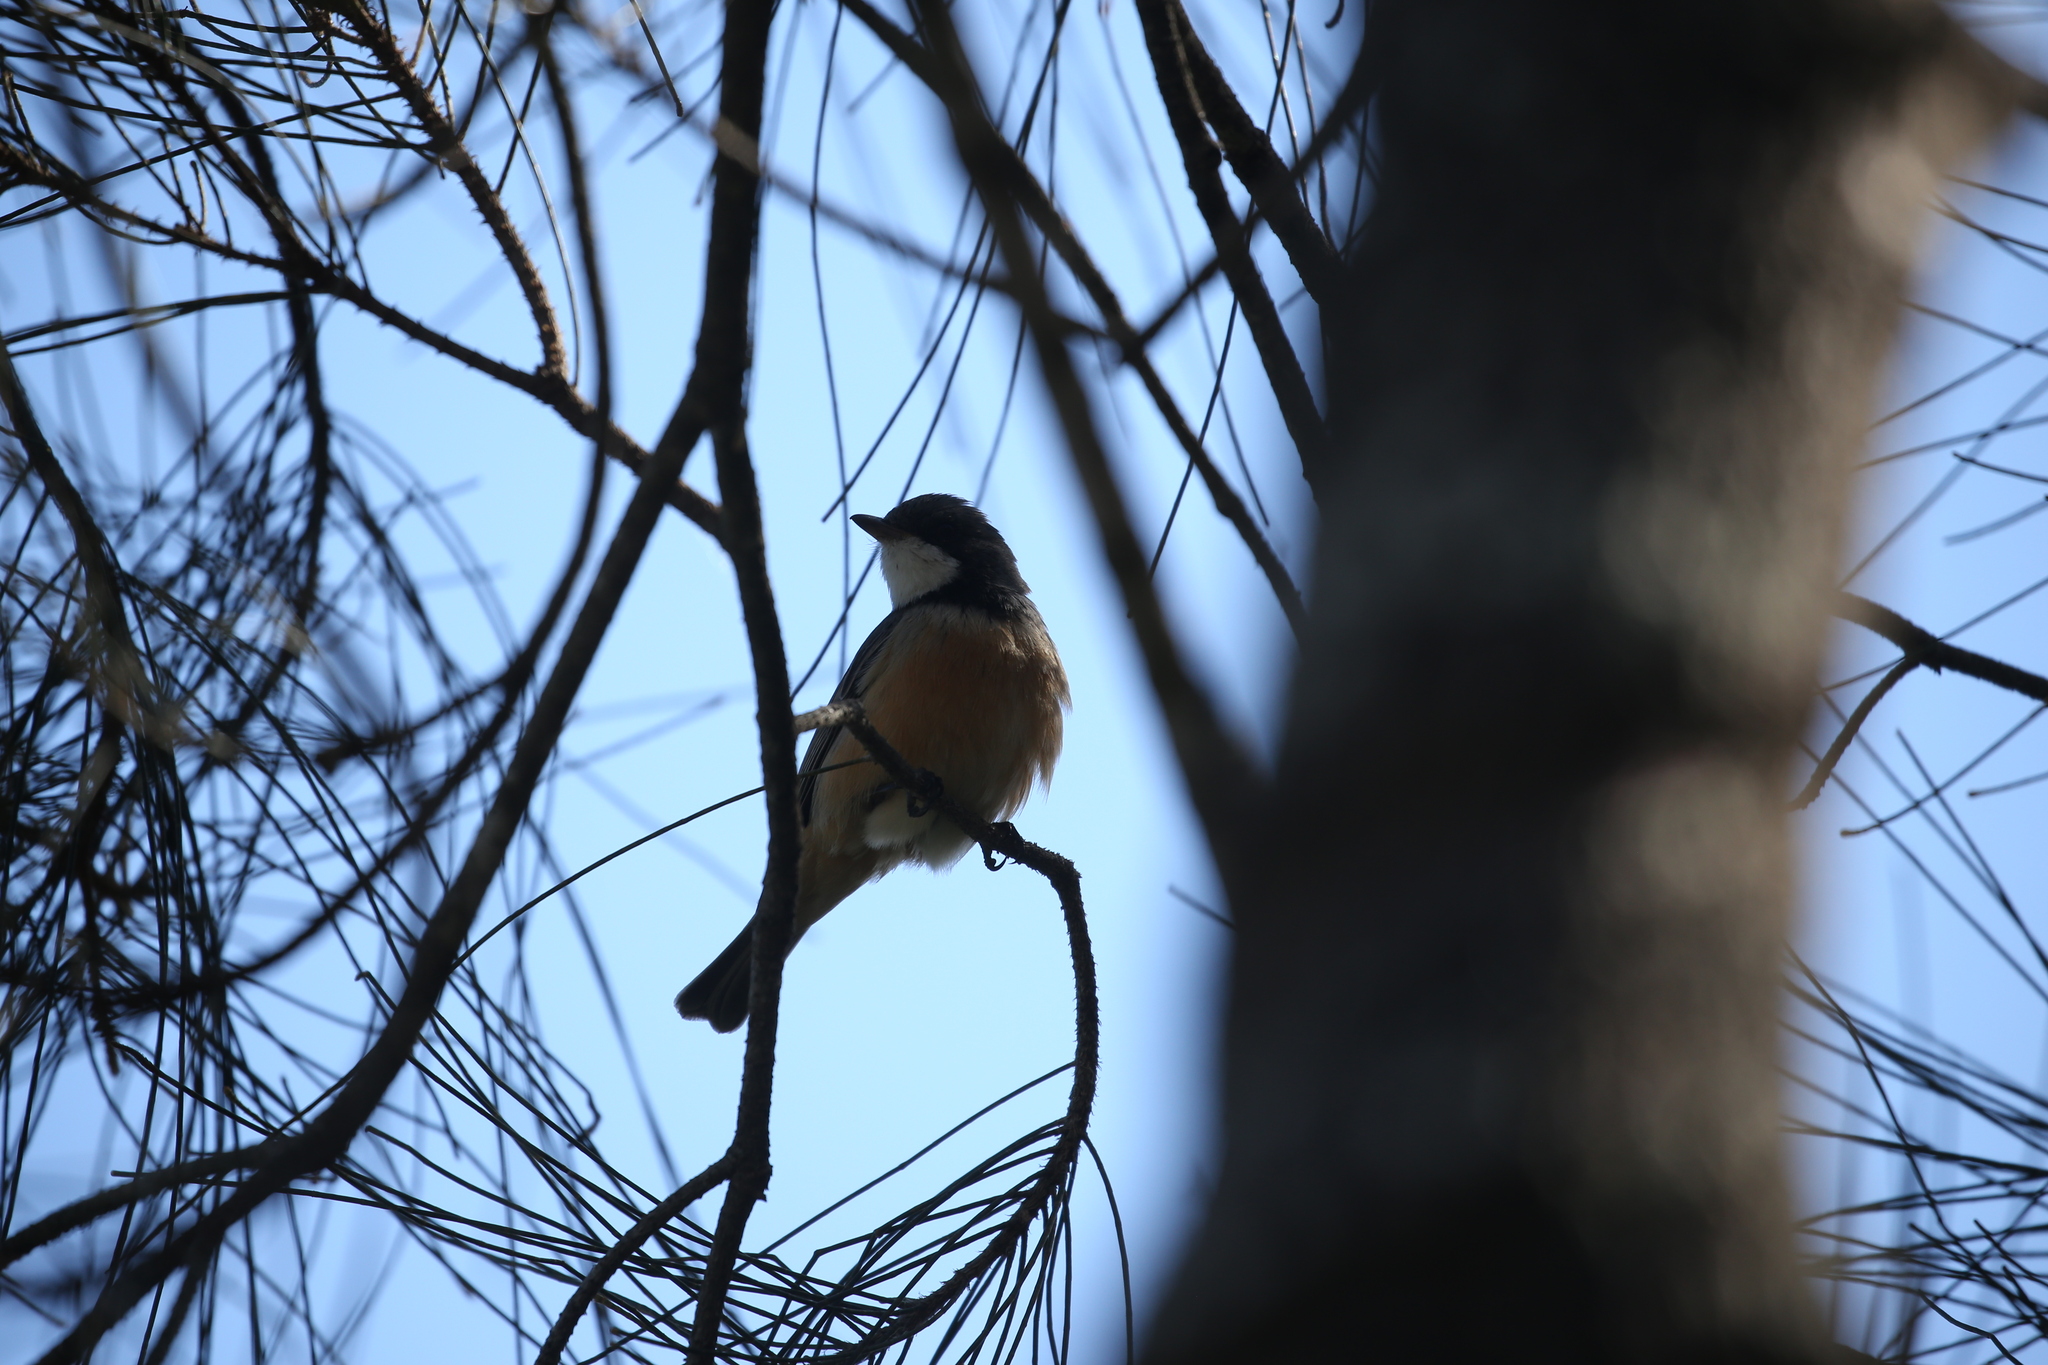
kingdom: Animalia
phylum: Chordata
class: Aves
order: Passeriformes
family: Pachycephalidae
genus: Pachycephala
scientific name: Pachycephala rufiventris
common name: Rufous whistler
